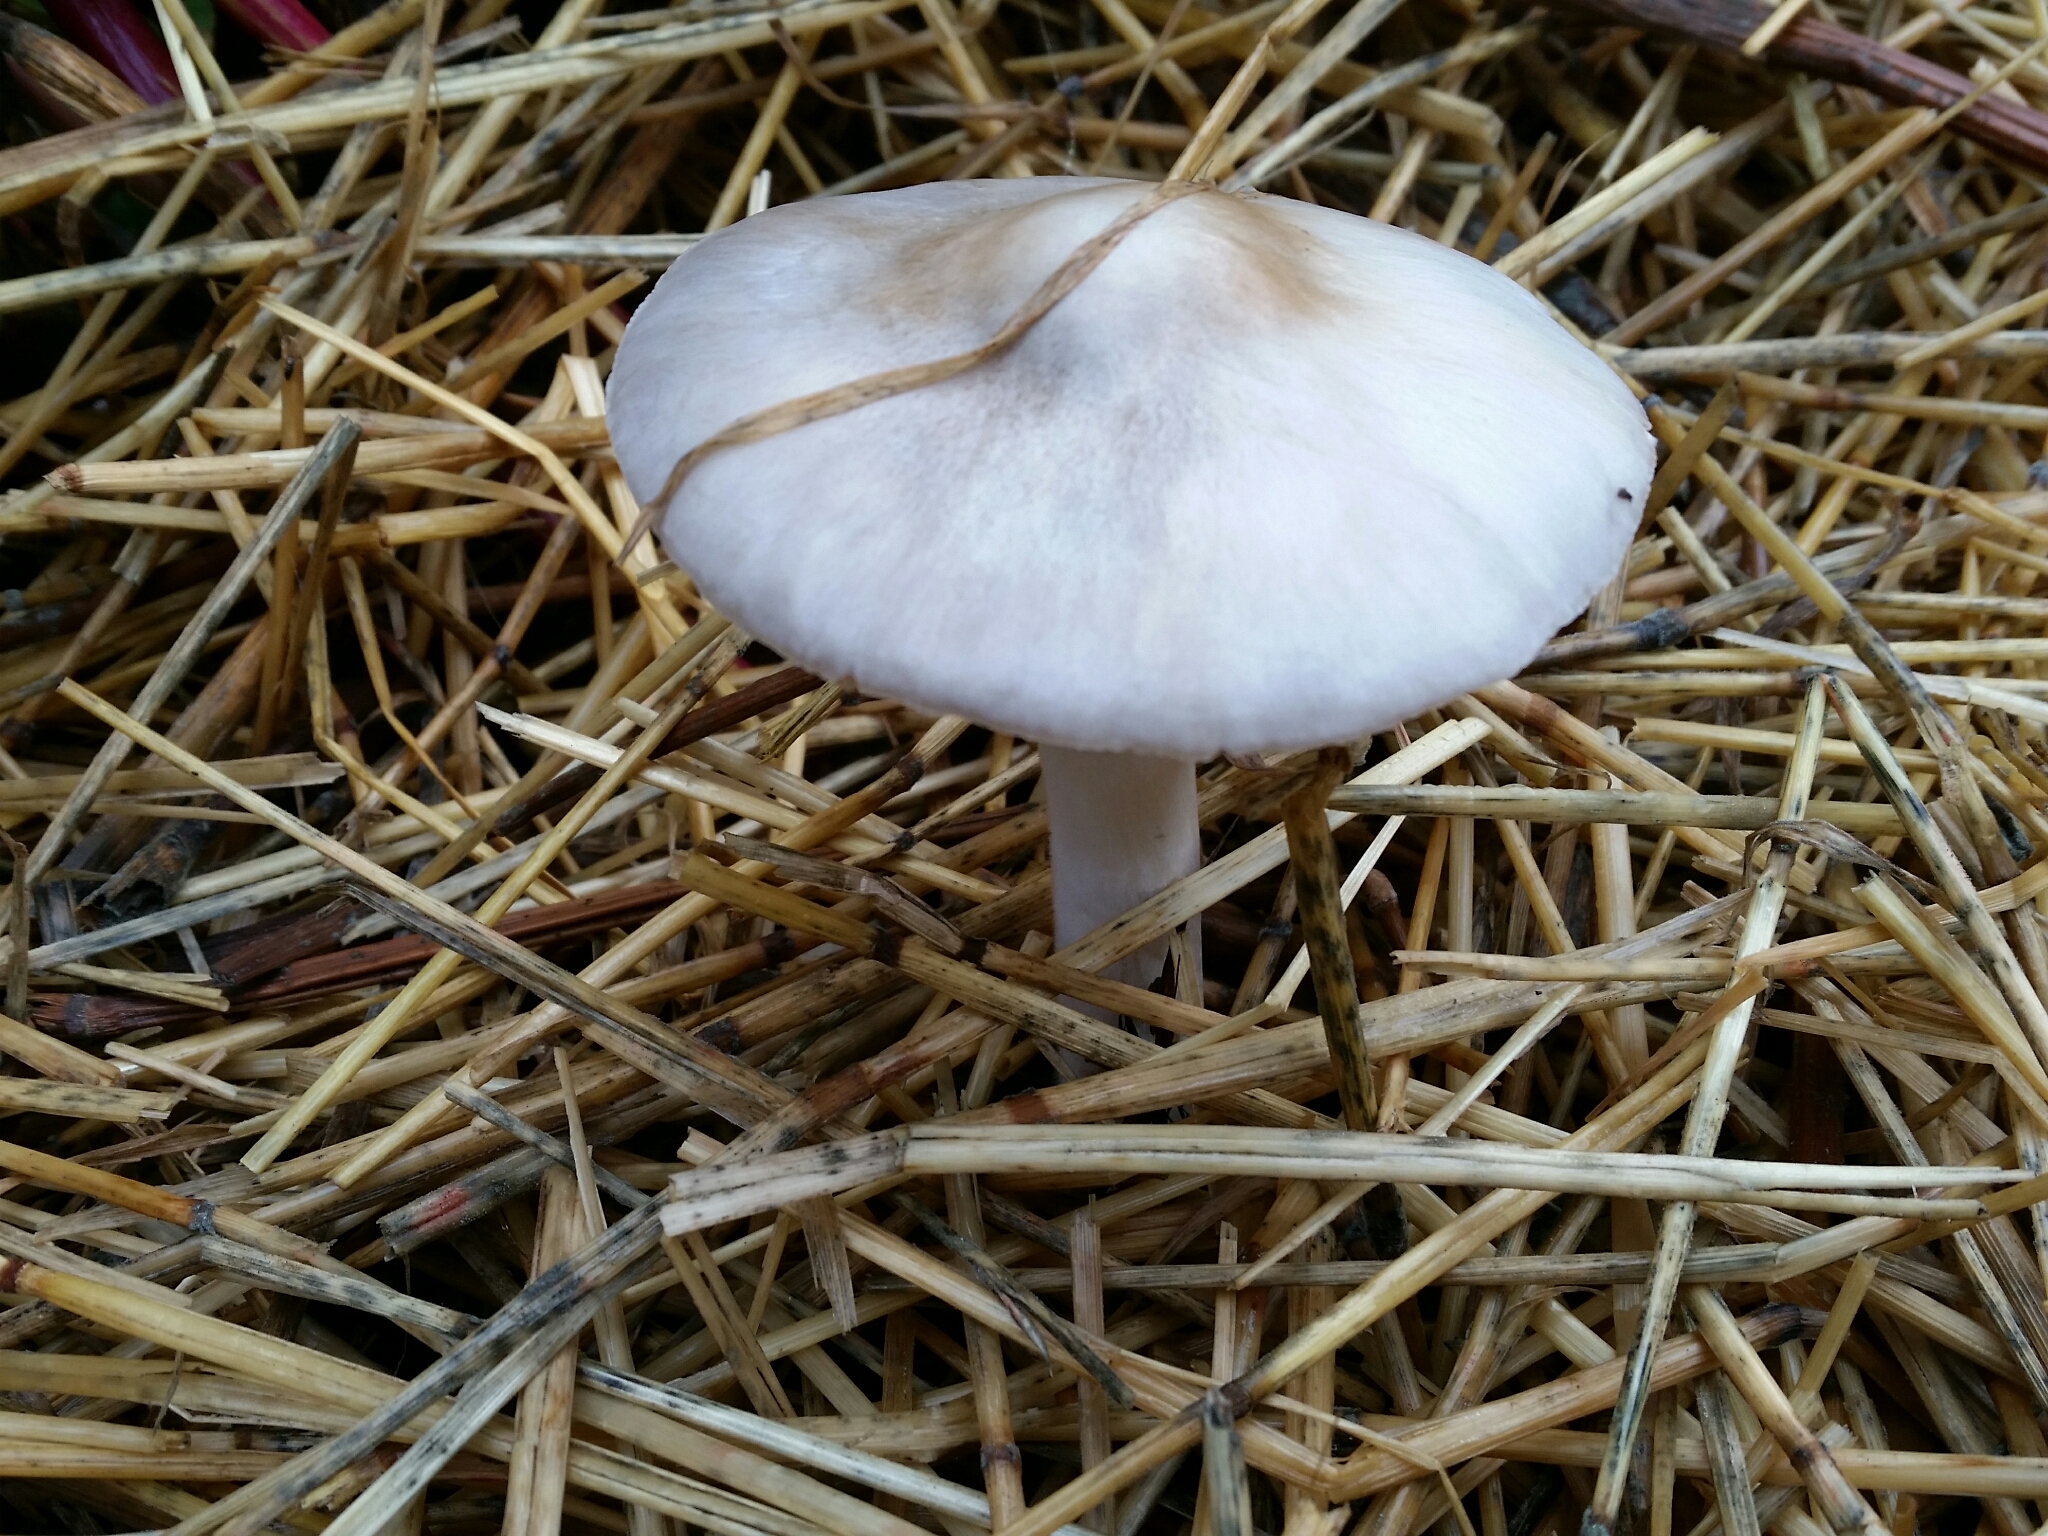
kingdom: Fungi
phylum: Basidiomycota
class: Agaricomycetes
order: Agaricales
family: Pluteaceae
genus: Volvopluteus
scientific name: Volvopluteus gloiocephalus
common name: Stubble rosegill
